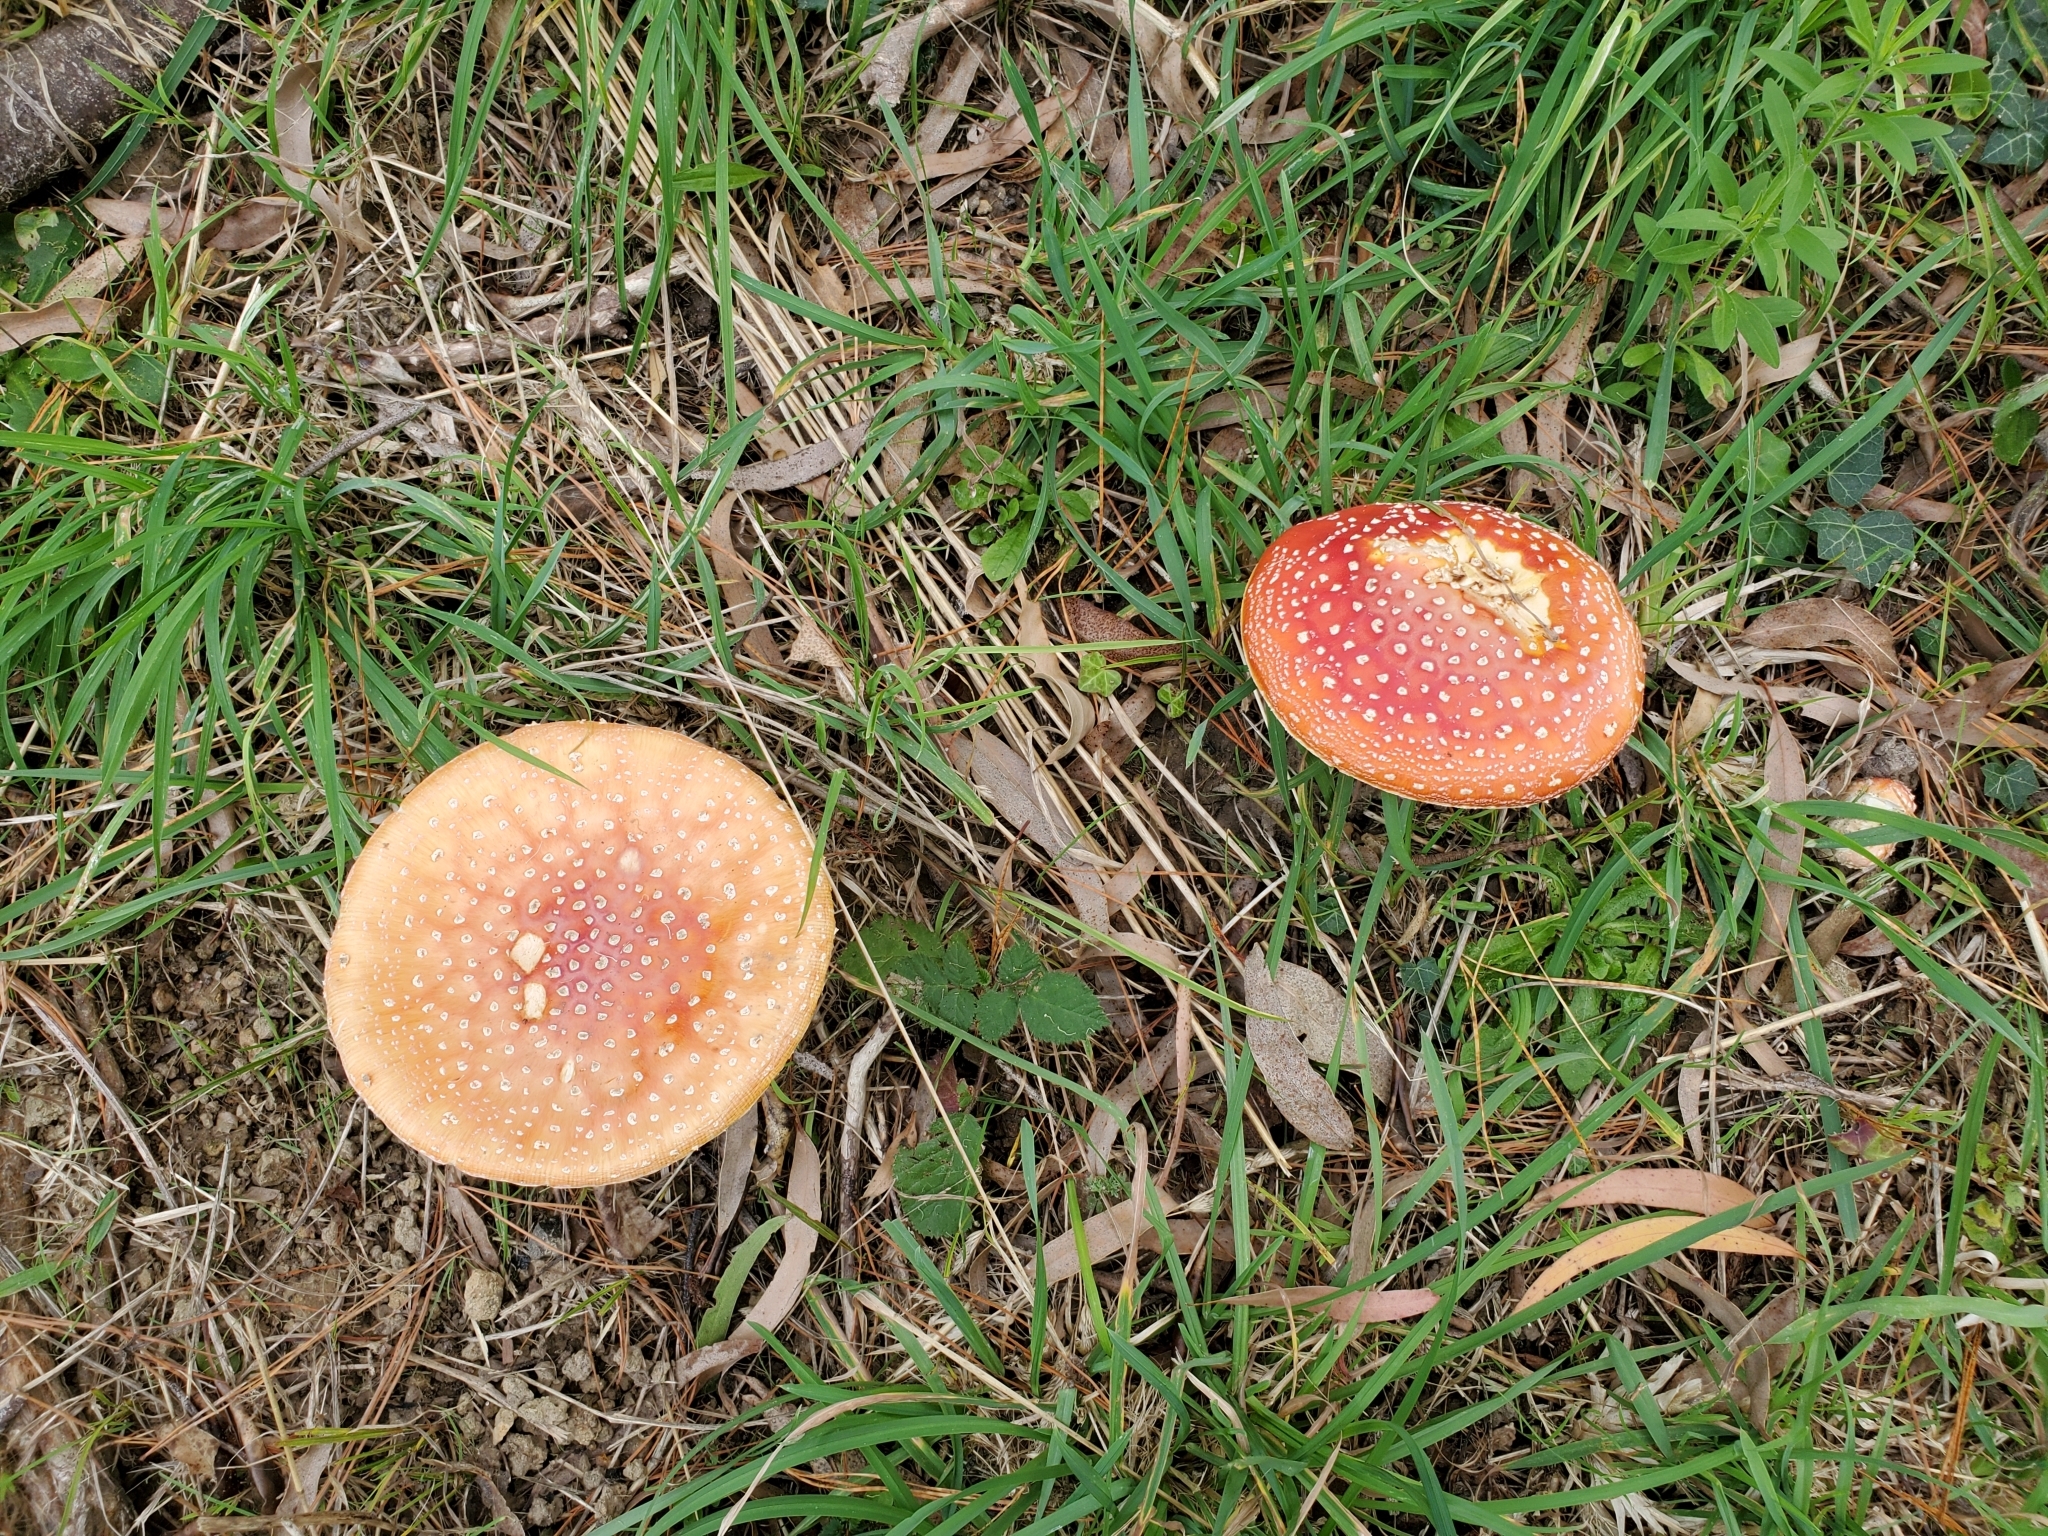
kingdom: Fungi
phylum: Basidiomycota
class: Agaricomycetes
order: Agaricales
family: Amanitaceae
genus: Amanita
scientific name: Amanita muscaria
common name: Fly agaric
